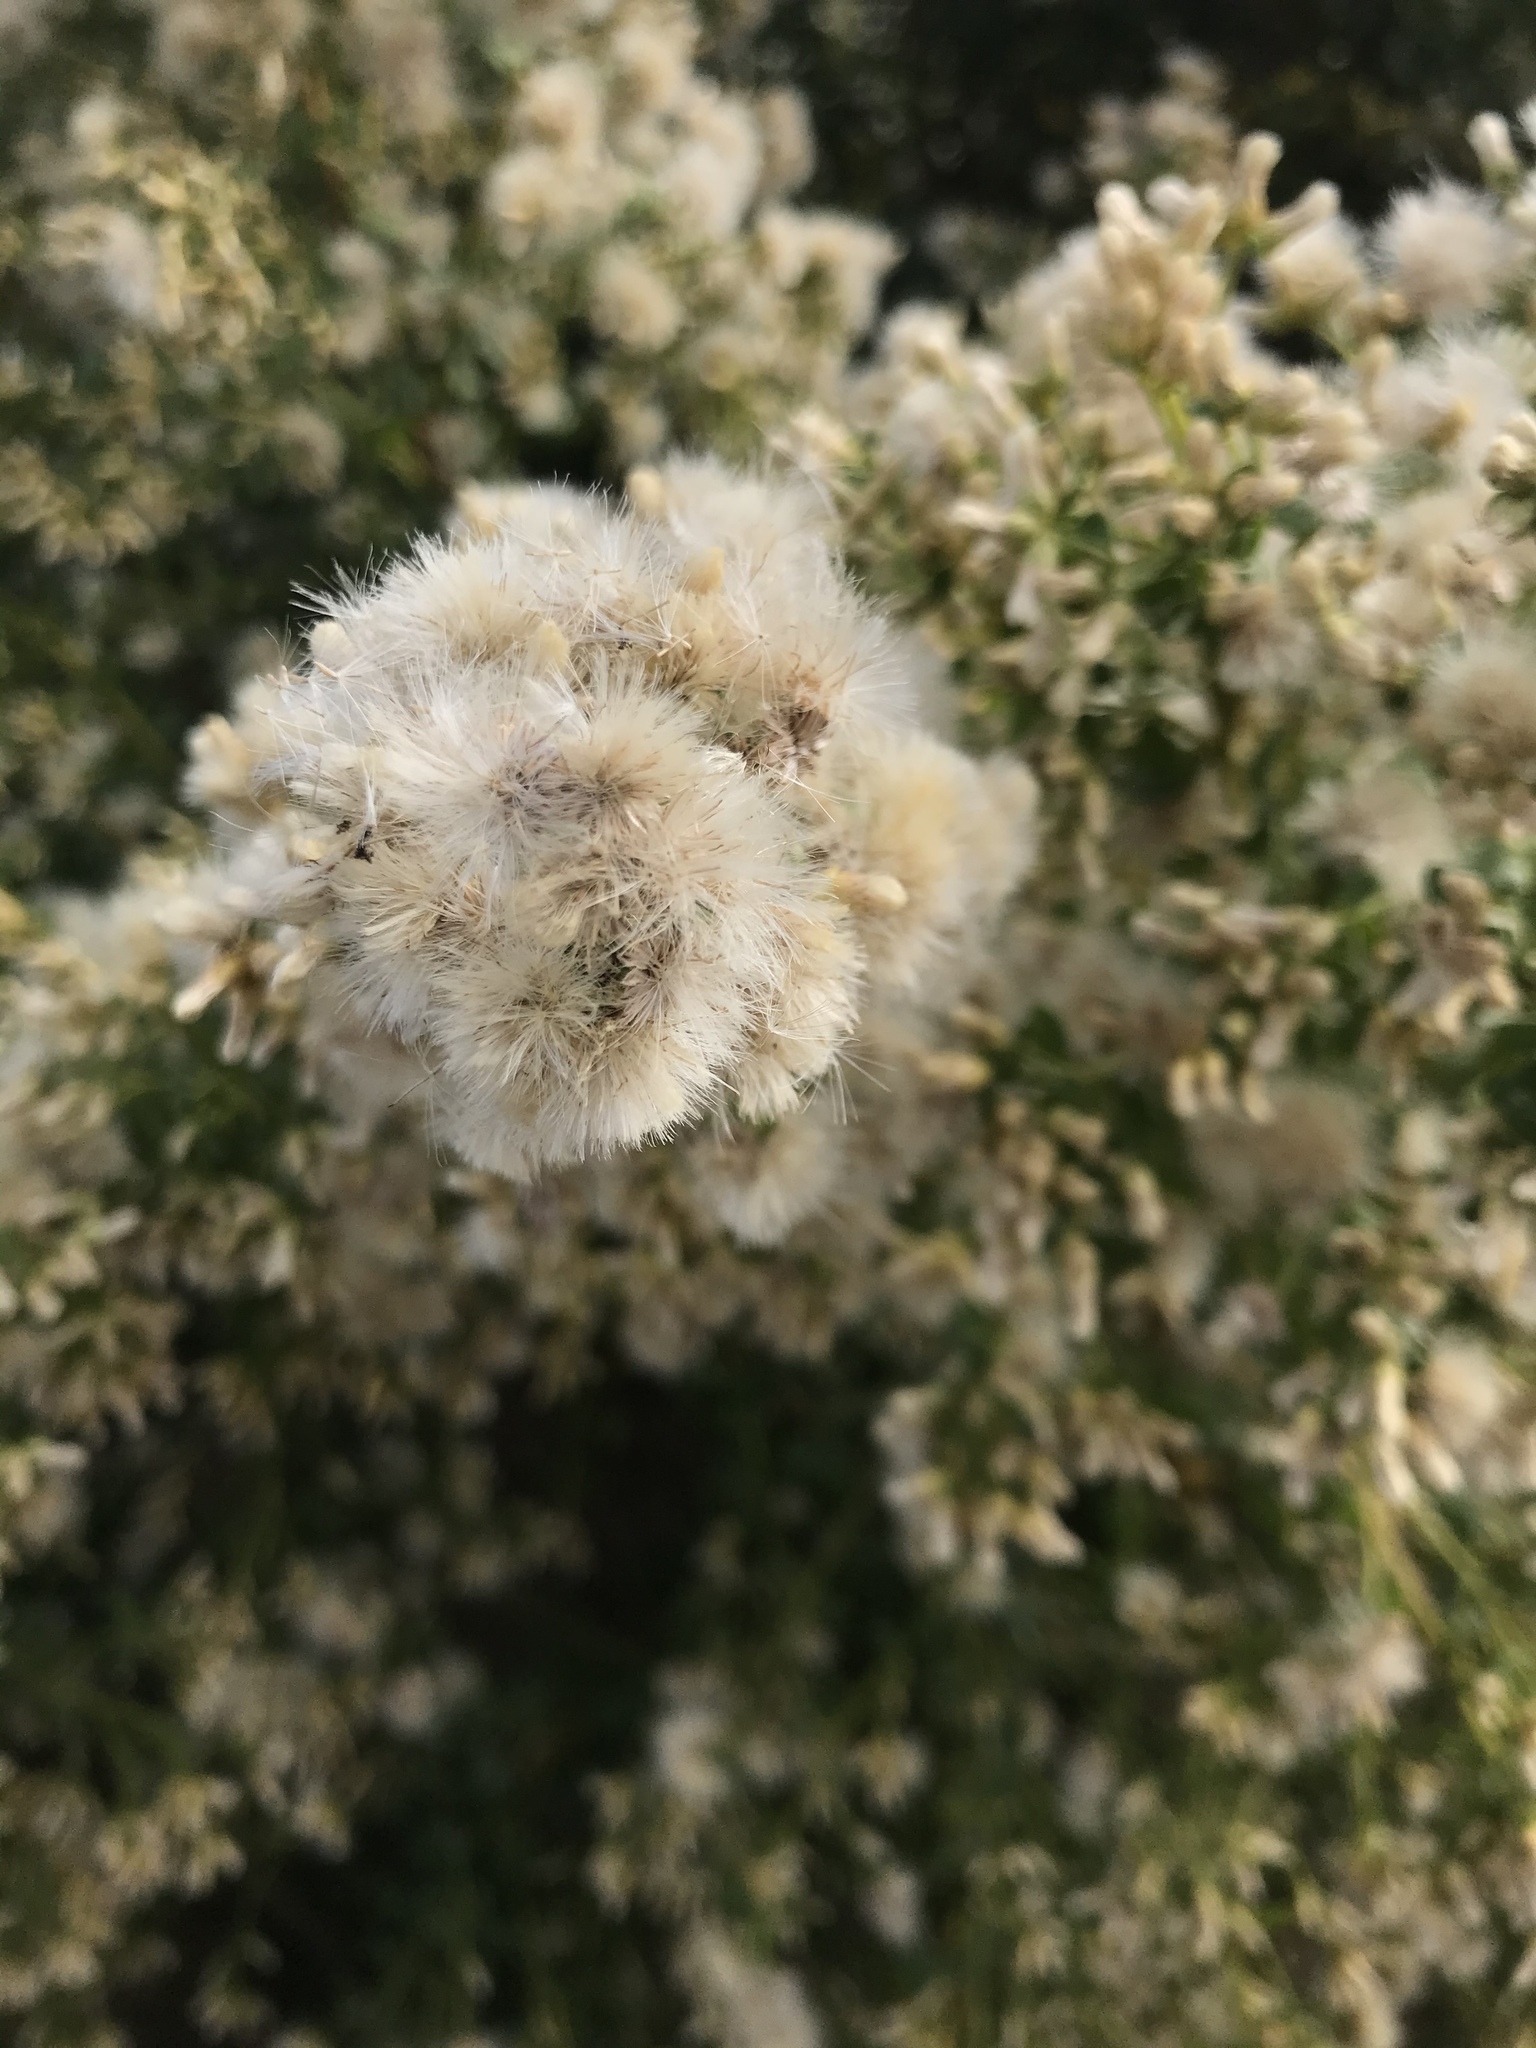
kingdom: Plantae
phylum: Tracheophyta
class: Magnoliopsida
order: Asterales
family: Asteraceae
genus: Baccharis
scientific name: Baccharis pilularis
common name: Coyotebrush
